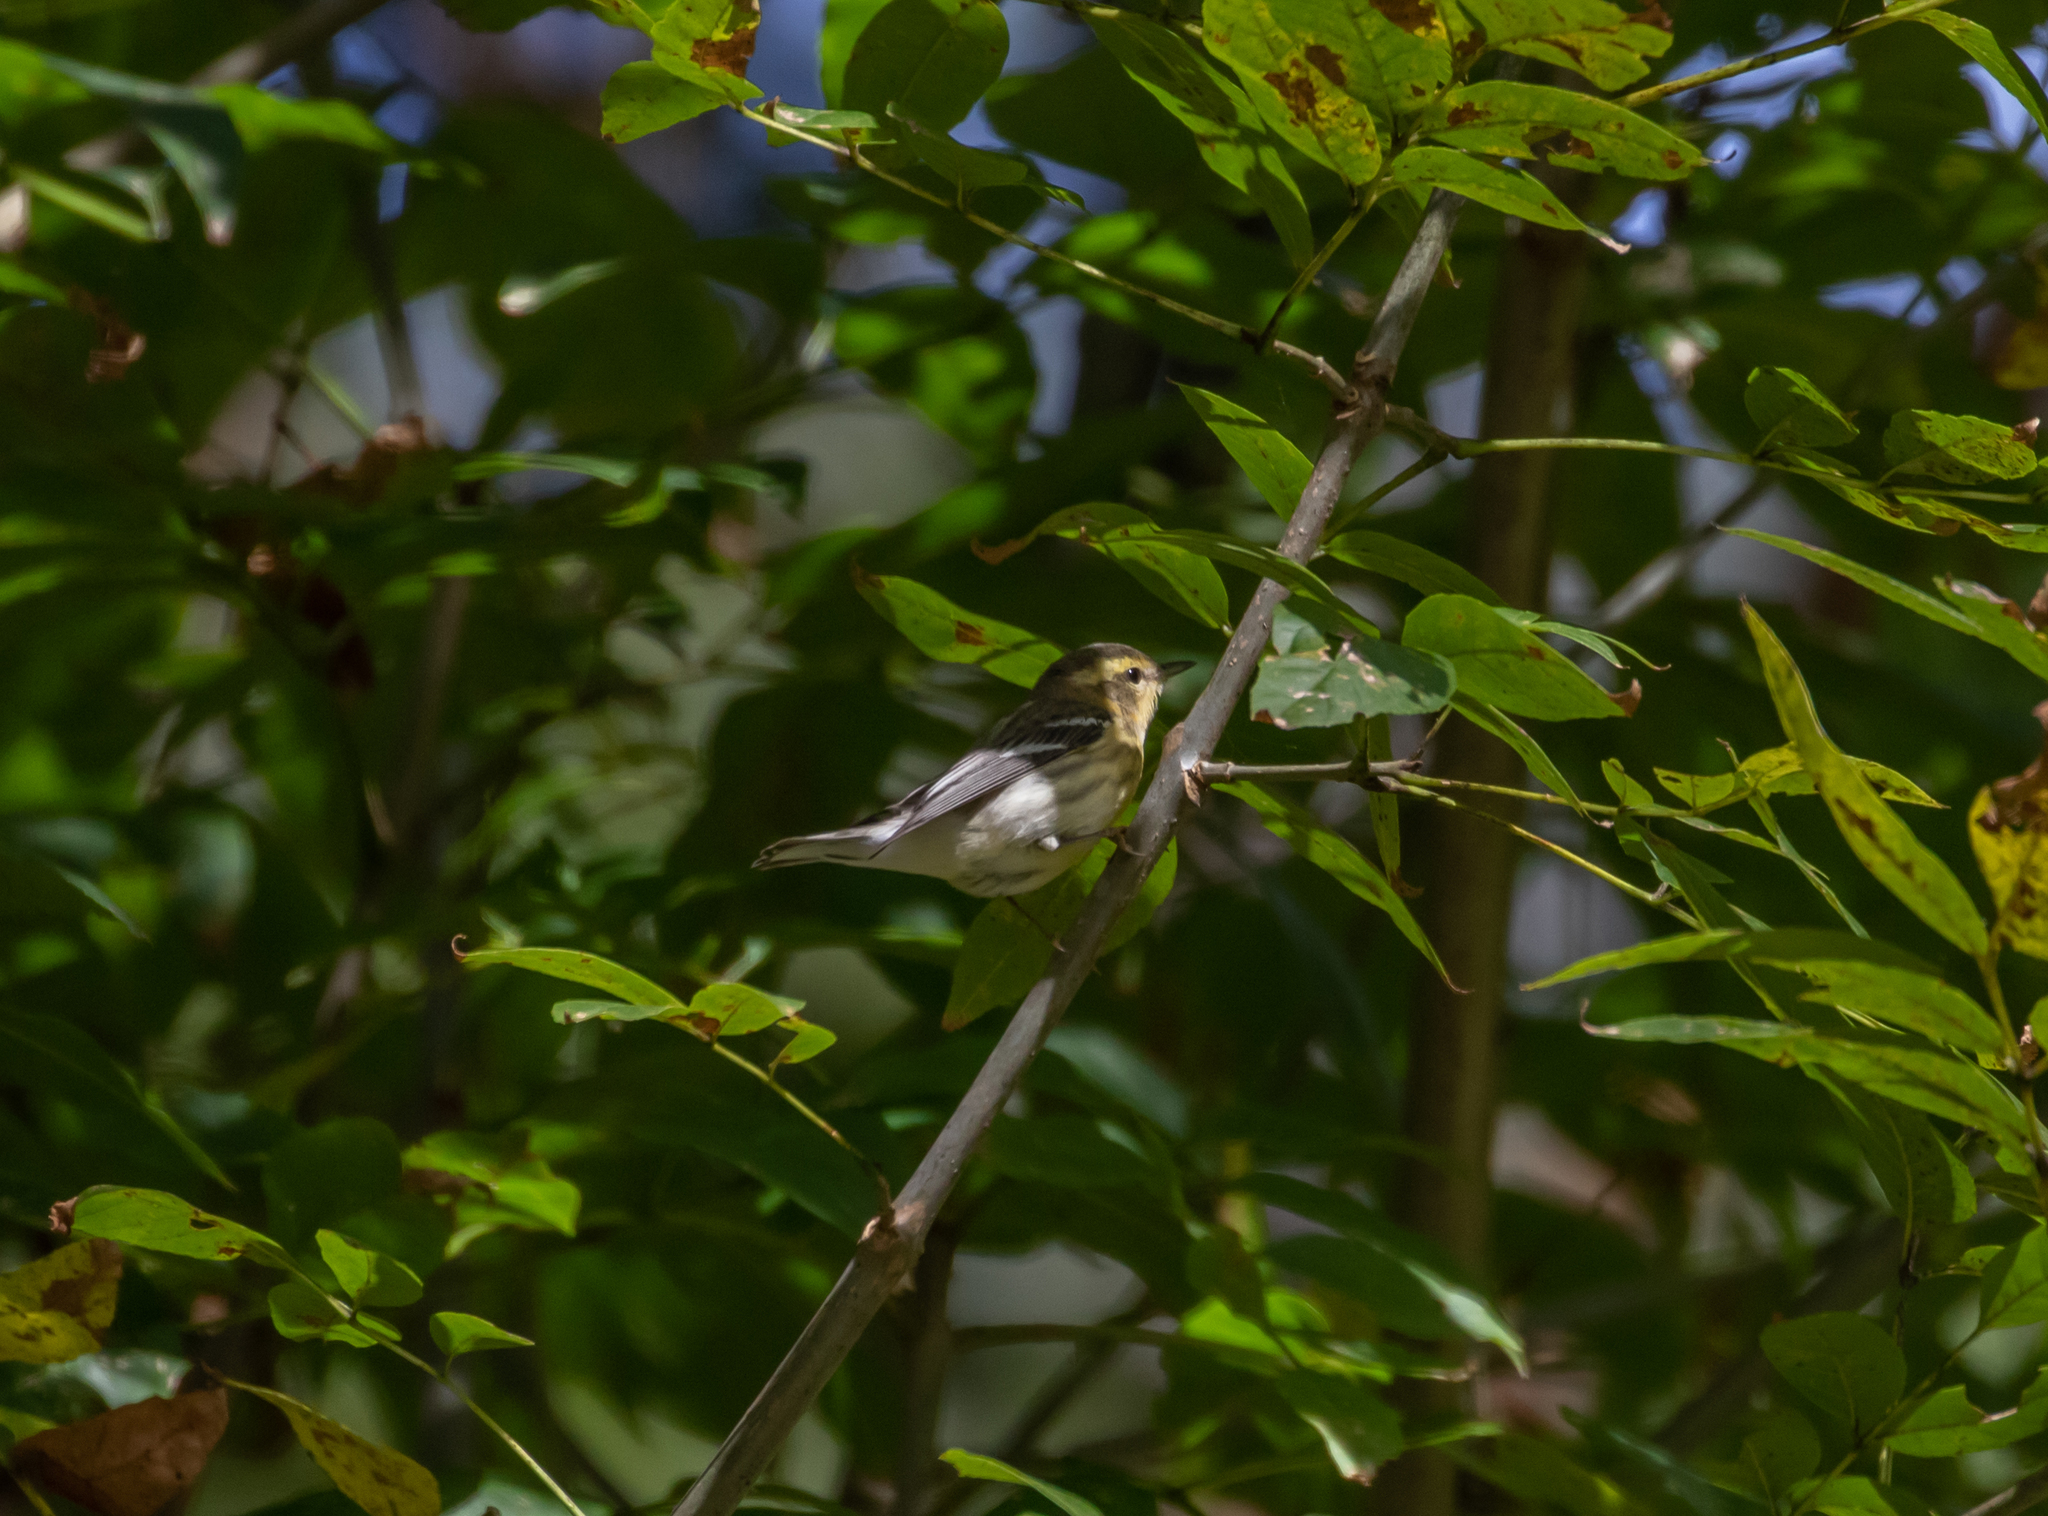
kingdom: Animalia
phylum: Chordata
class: Aves
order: Passeriformes
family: Parulidae
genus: Setophaga
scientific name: Setophaga fusca
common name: Blackburnian warbler
